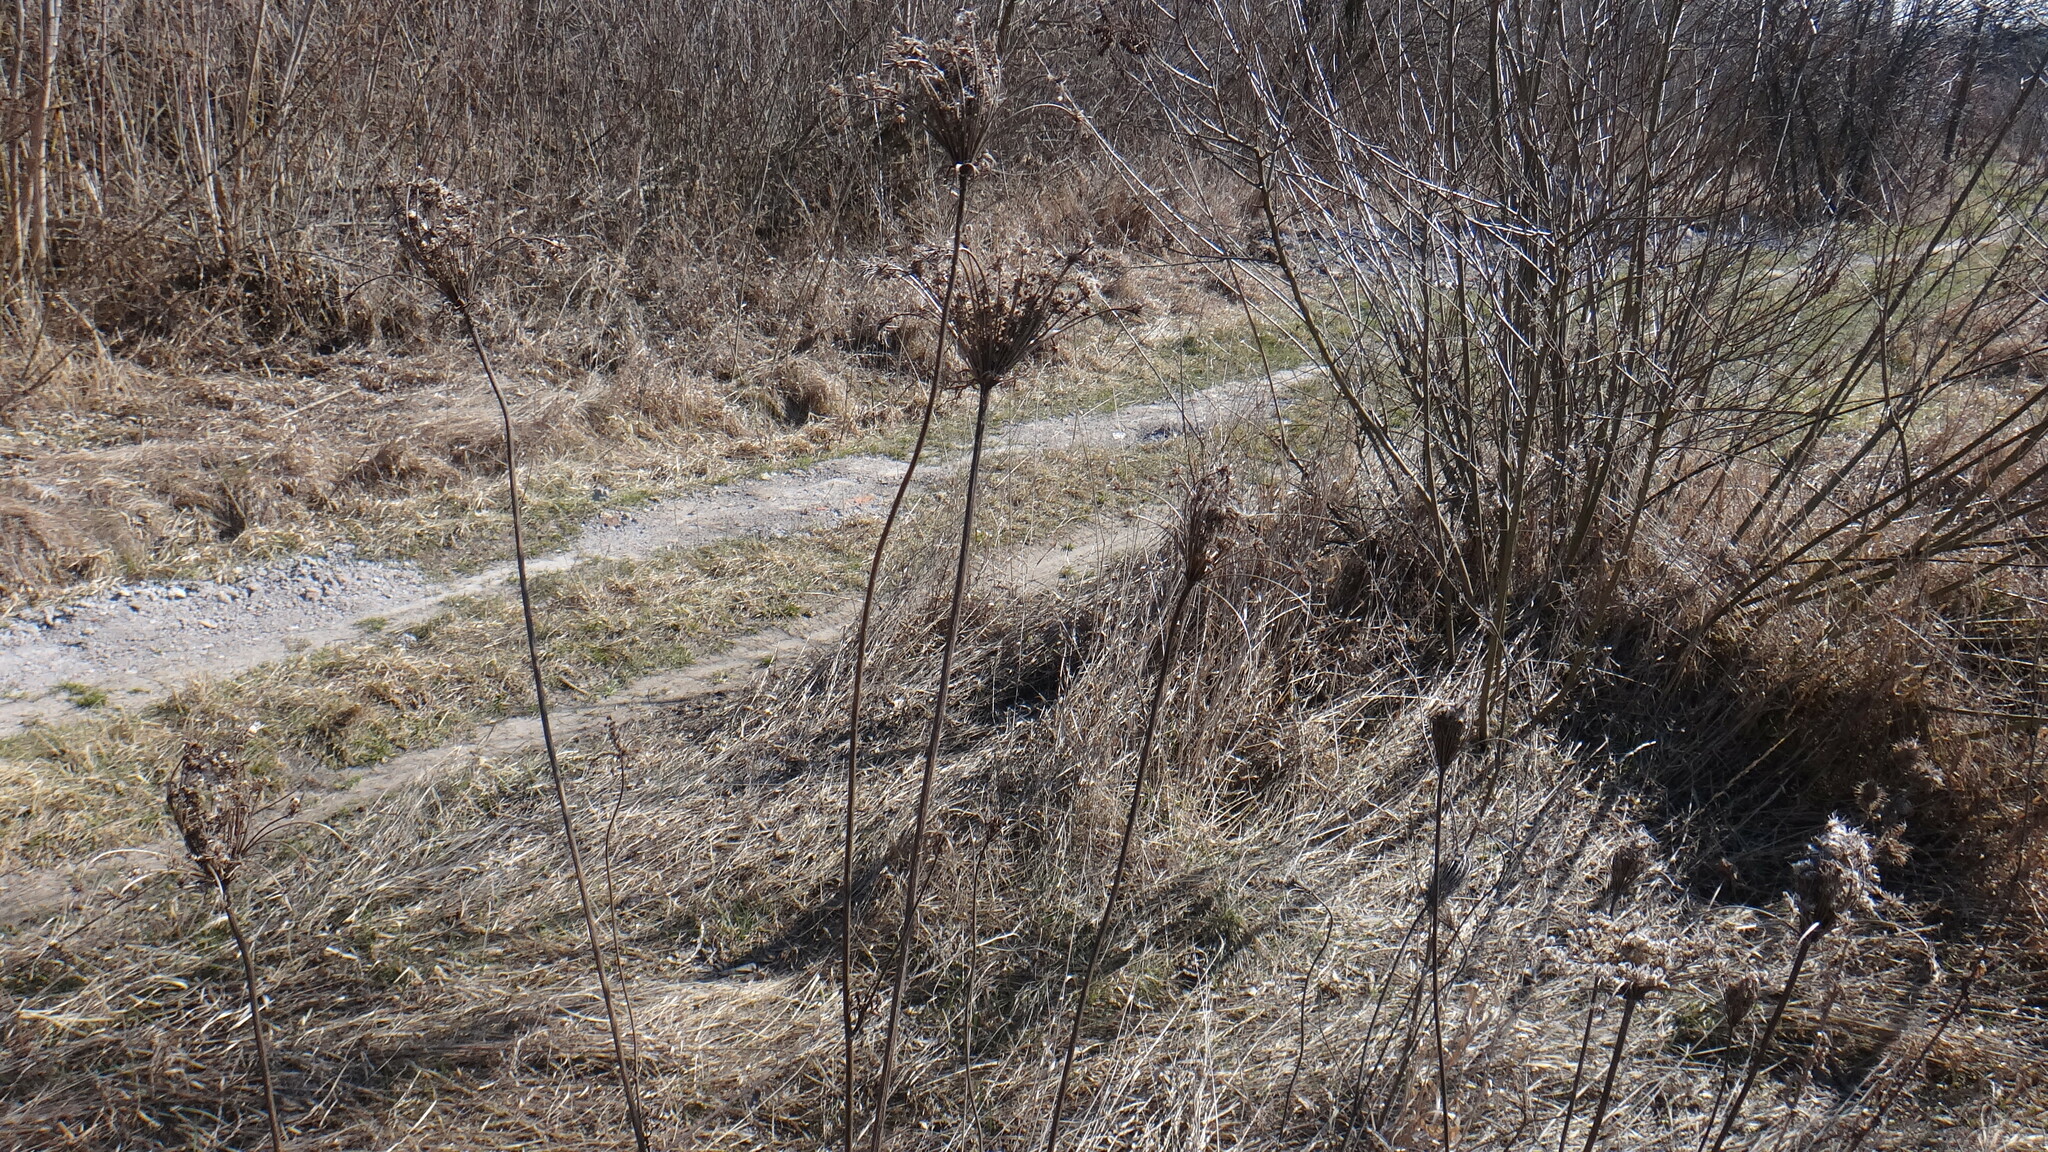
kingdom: Plantae
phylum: Tracheophyta
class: Magnoliopsida
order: Apiales
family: Apiaceae
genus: Daucus
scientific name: Daucus carota
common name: Wild carrot
